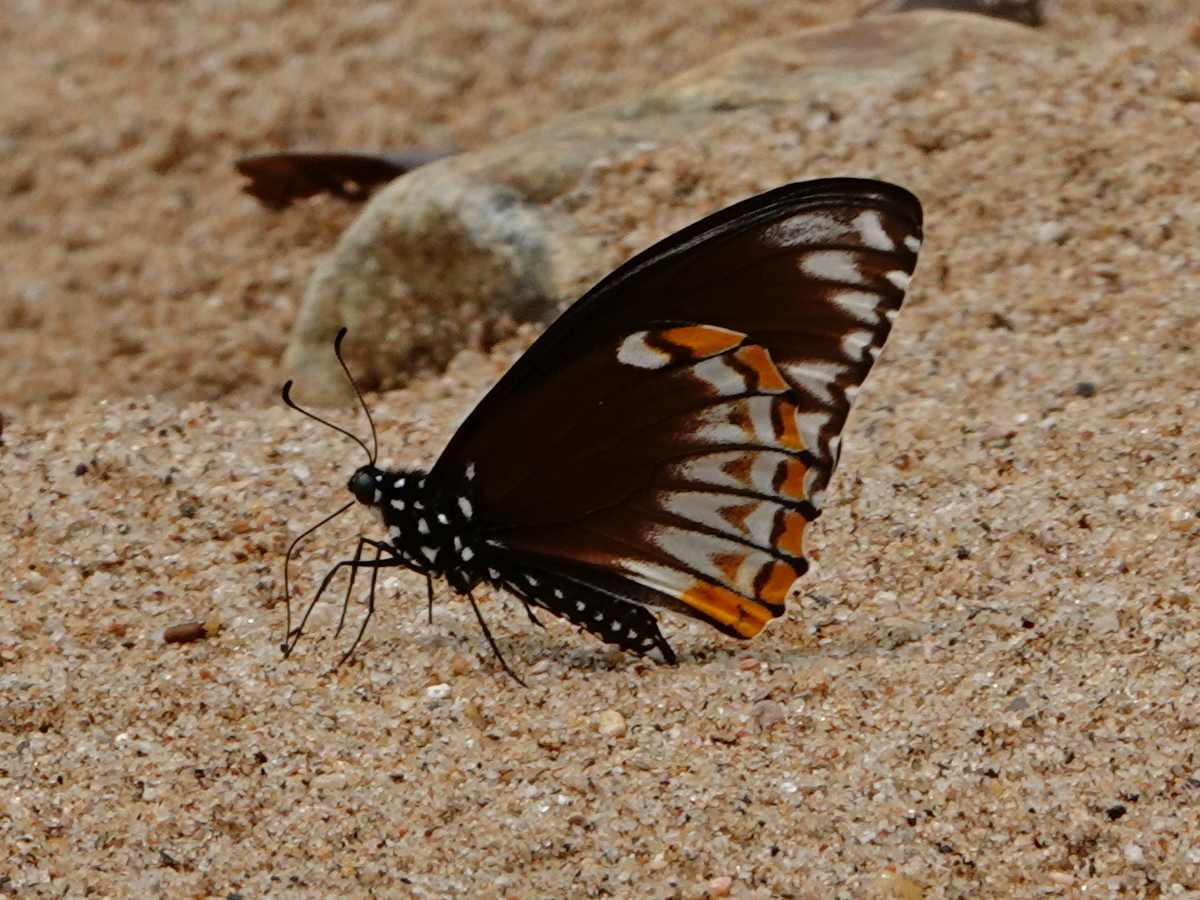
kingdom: Animalia
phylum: Arthropoda
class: Insecta
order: Lepidoptera
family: Papilionidae
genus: Chilasa
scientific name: Chilasa clytia
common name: Common mime
